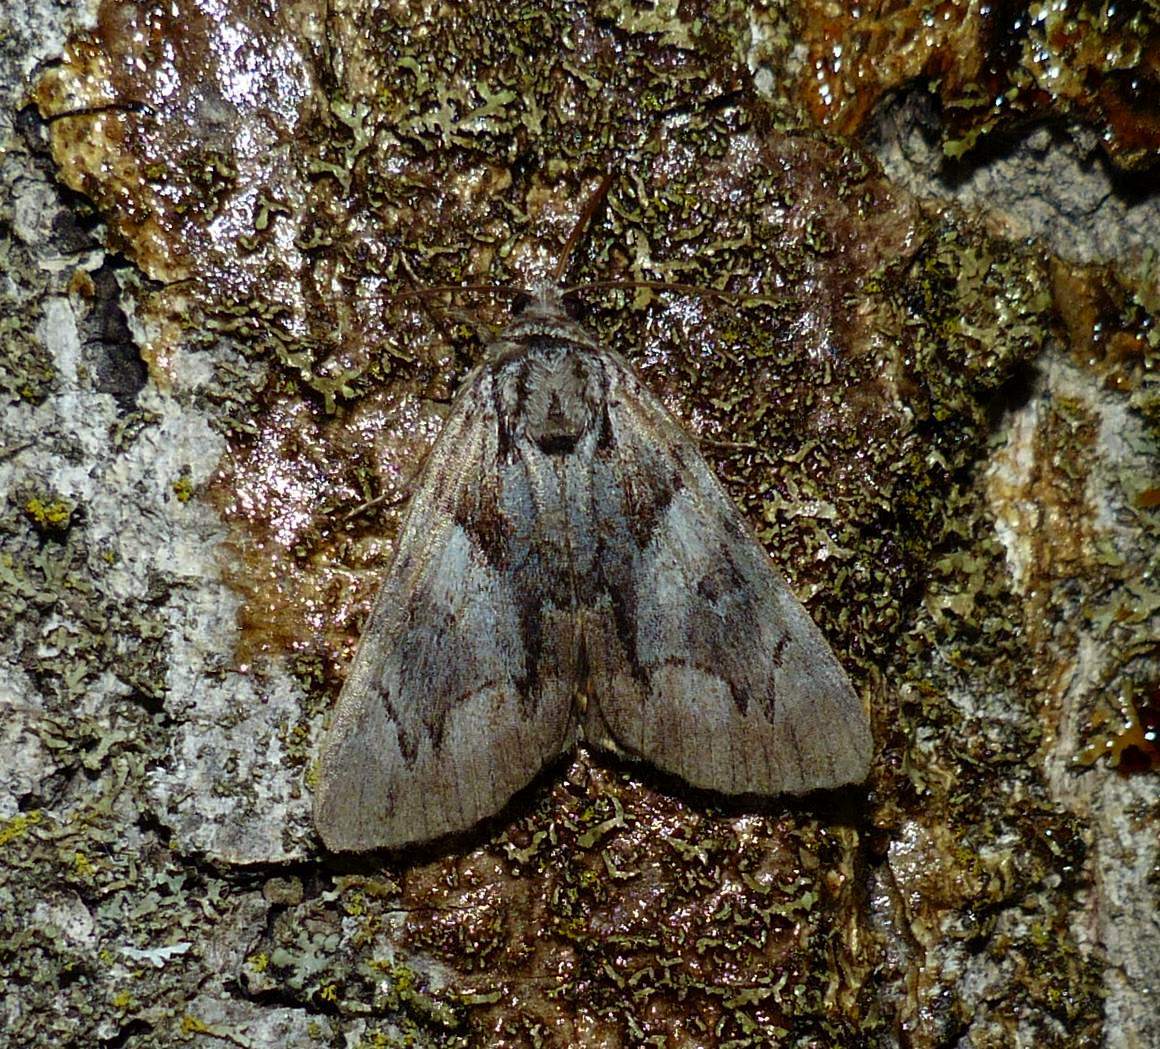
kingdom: Animalia
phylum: Arthropoda
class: Insecta
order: Lepidoptera
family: Erebidae
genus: Catocala
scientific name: Catocala blandula
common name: Charming underwing
